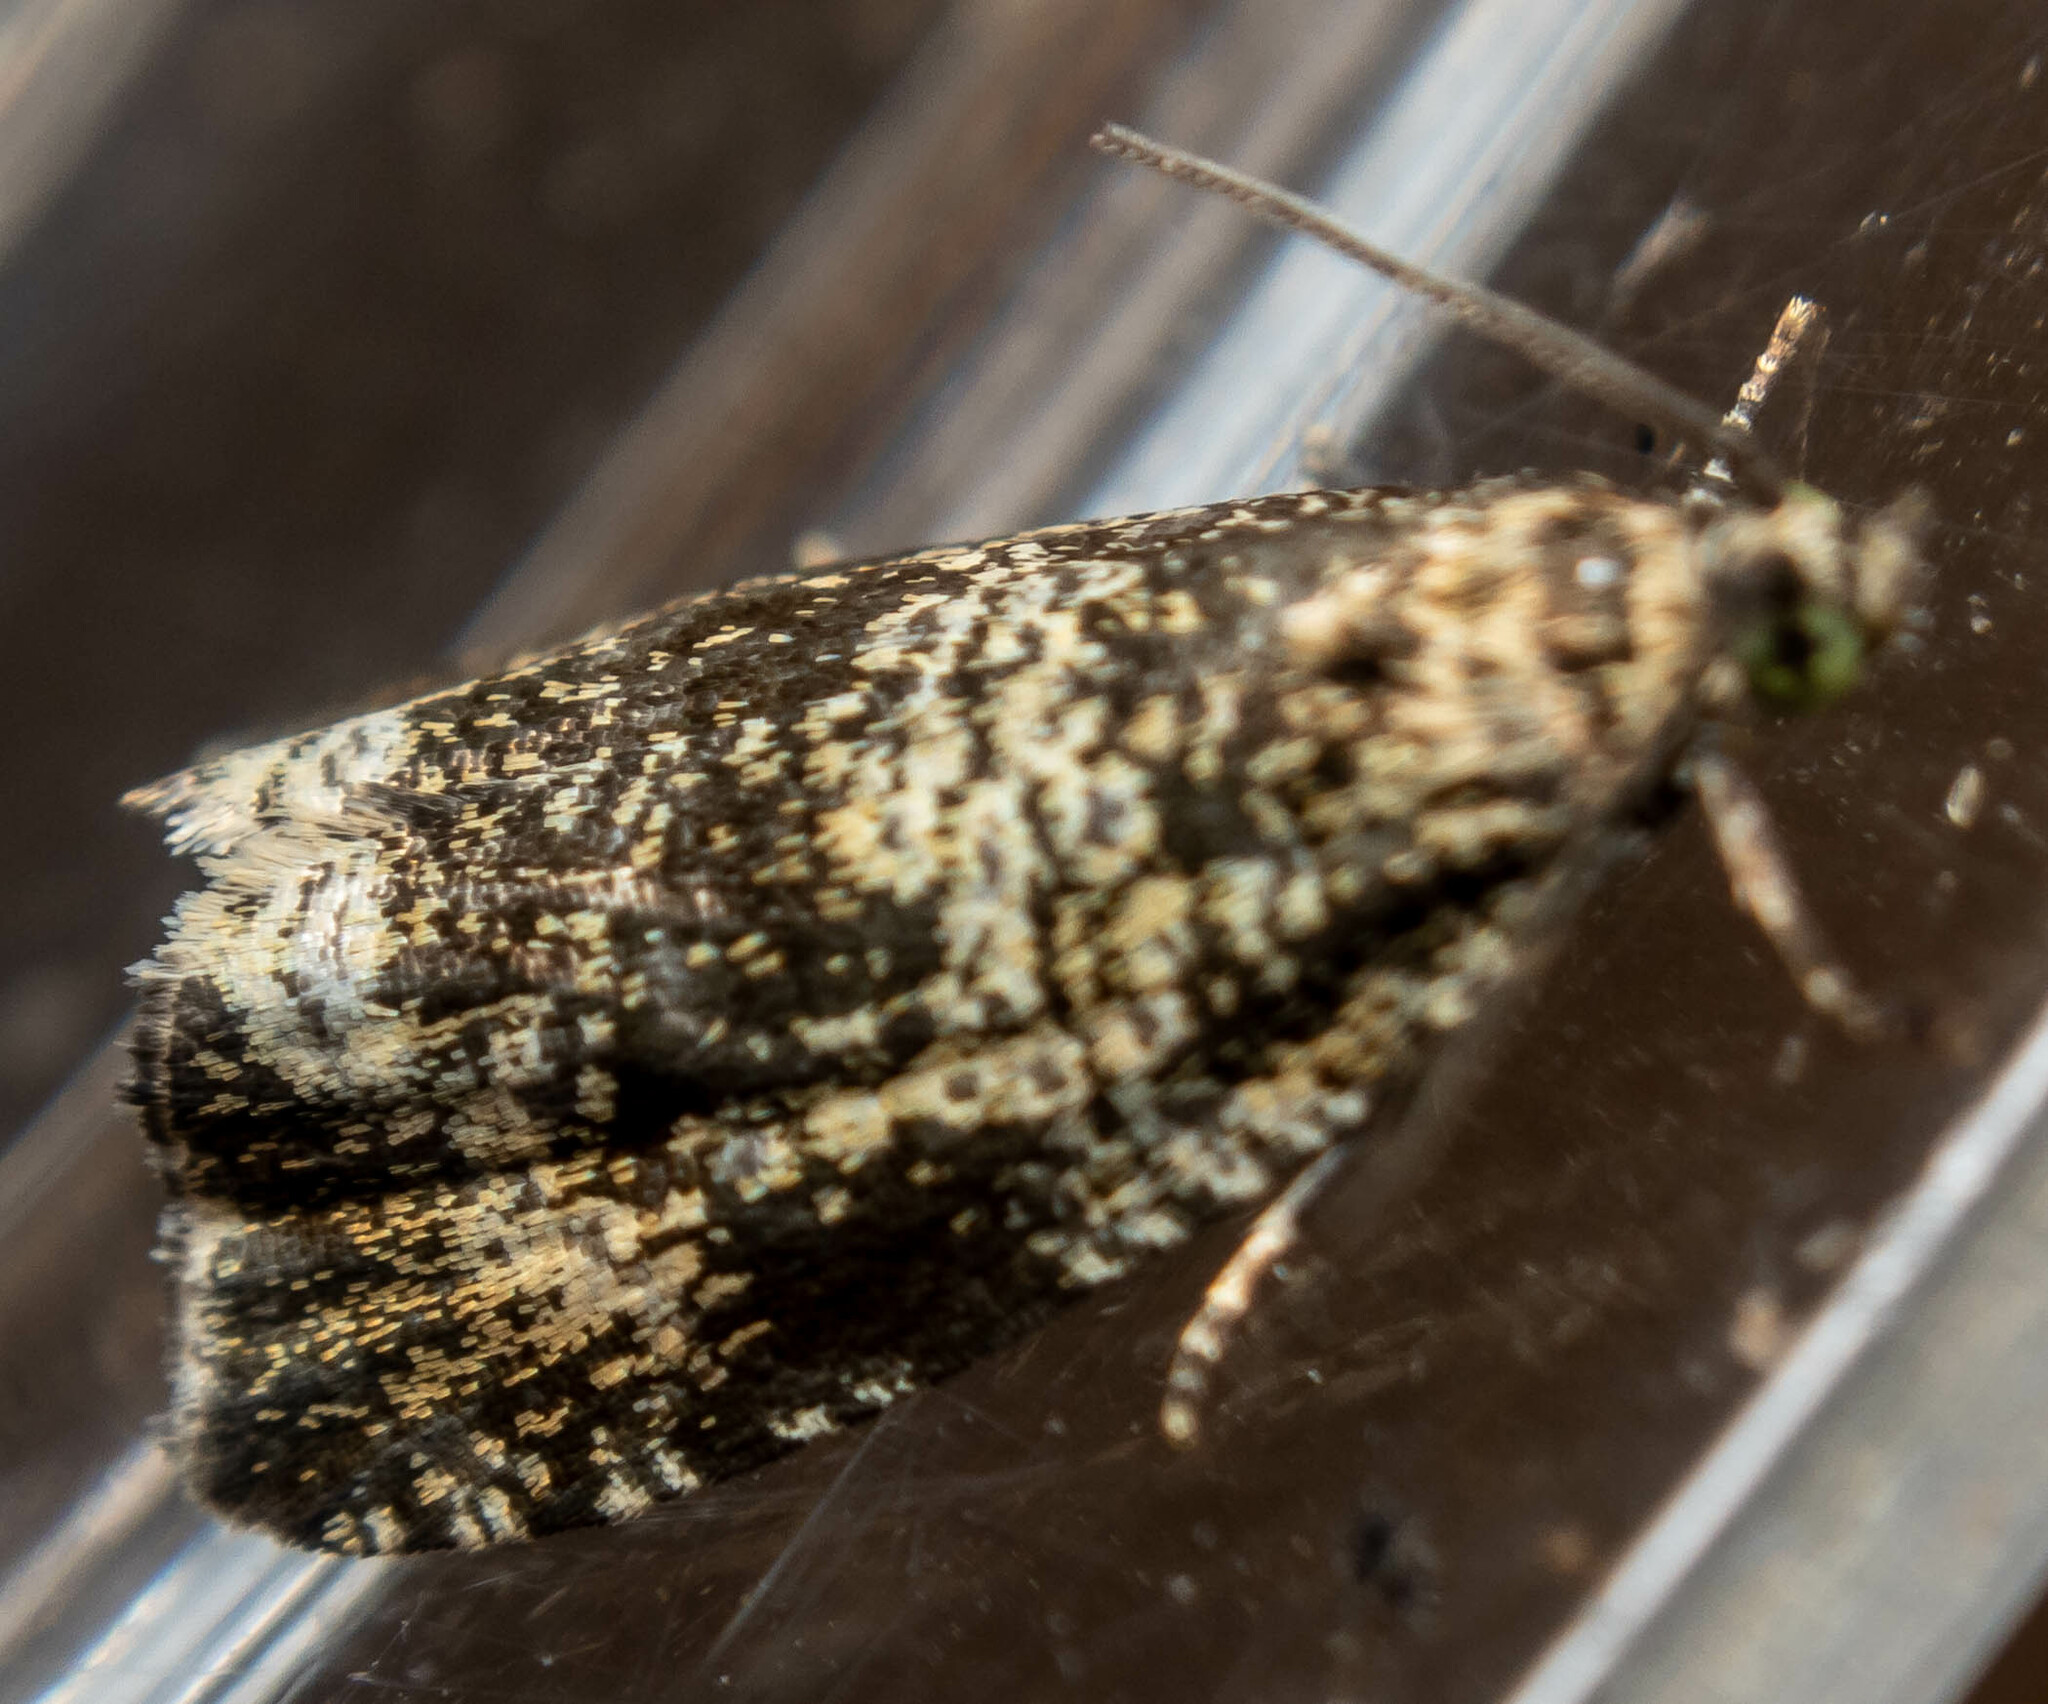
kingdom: Animalia
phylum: Arthropoda
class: Insecta
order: Lepidoptera
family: Tortricidae
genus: Syricoris
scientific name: Syricoris lacunana
